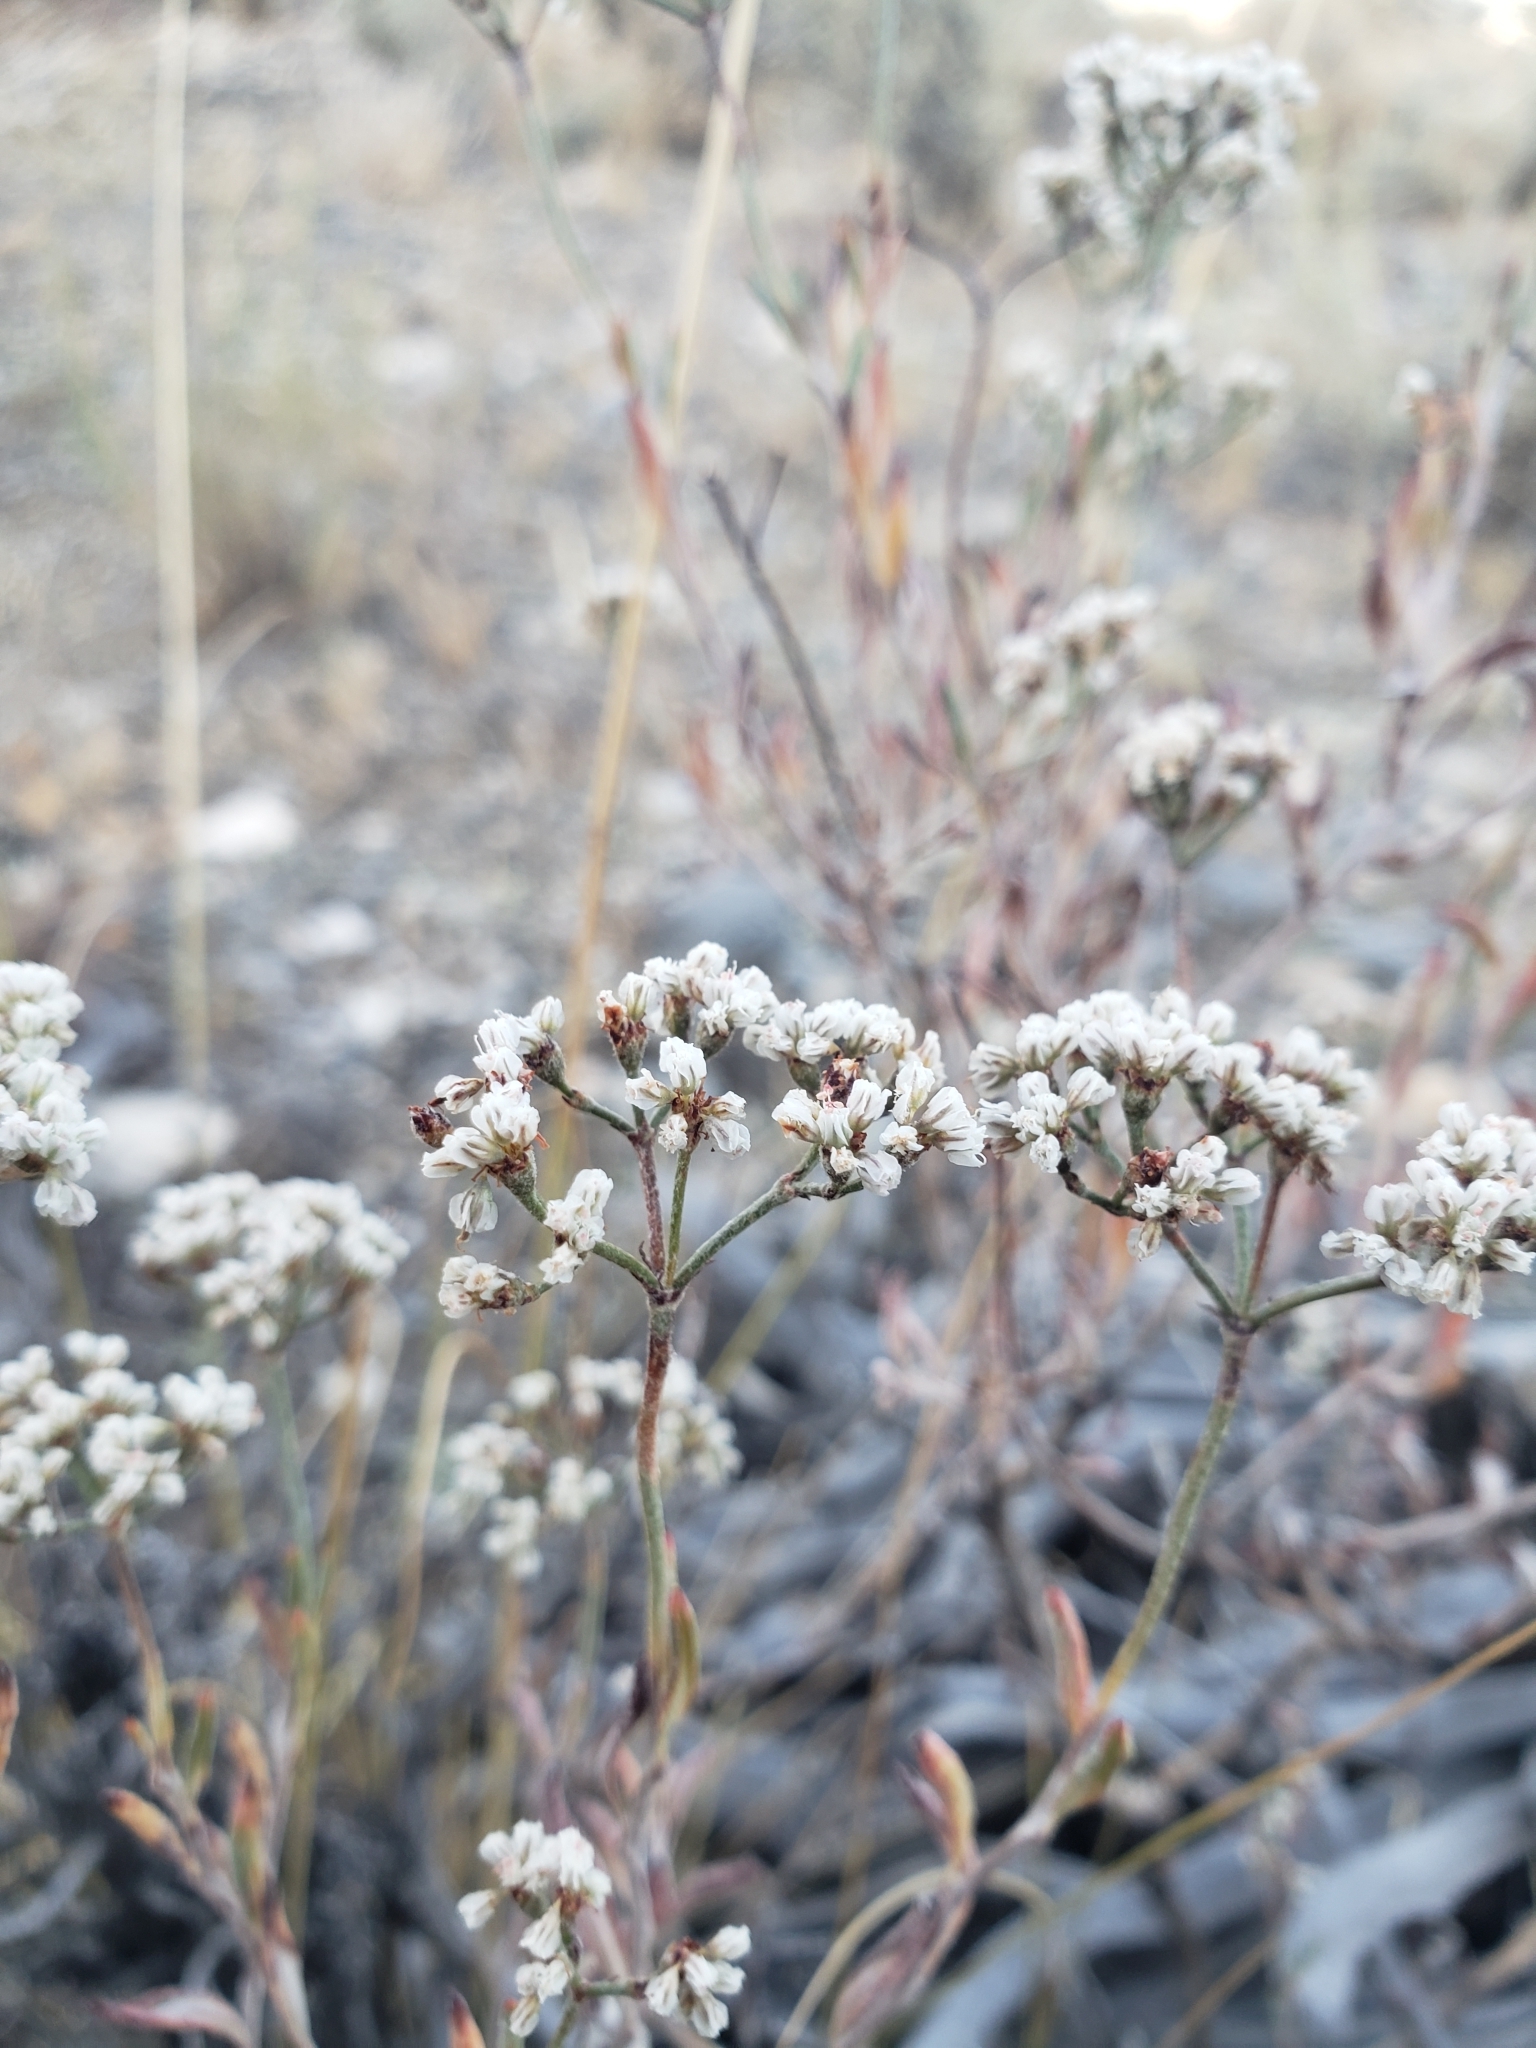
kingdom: Plantae
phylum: Tracheophyta
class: Magnoliopsida
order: Caryophyllales
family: Polygonaceae
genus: Eriogonum
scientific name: Eriogonum microtheca
